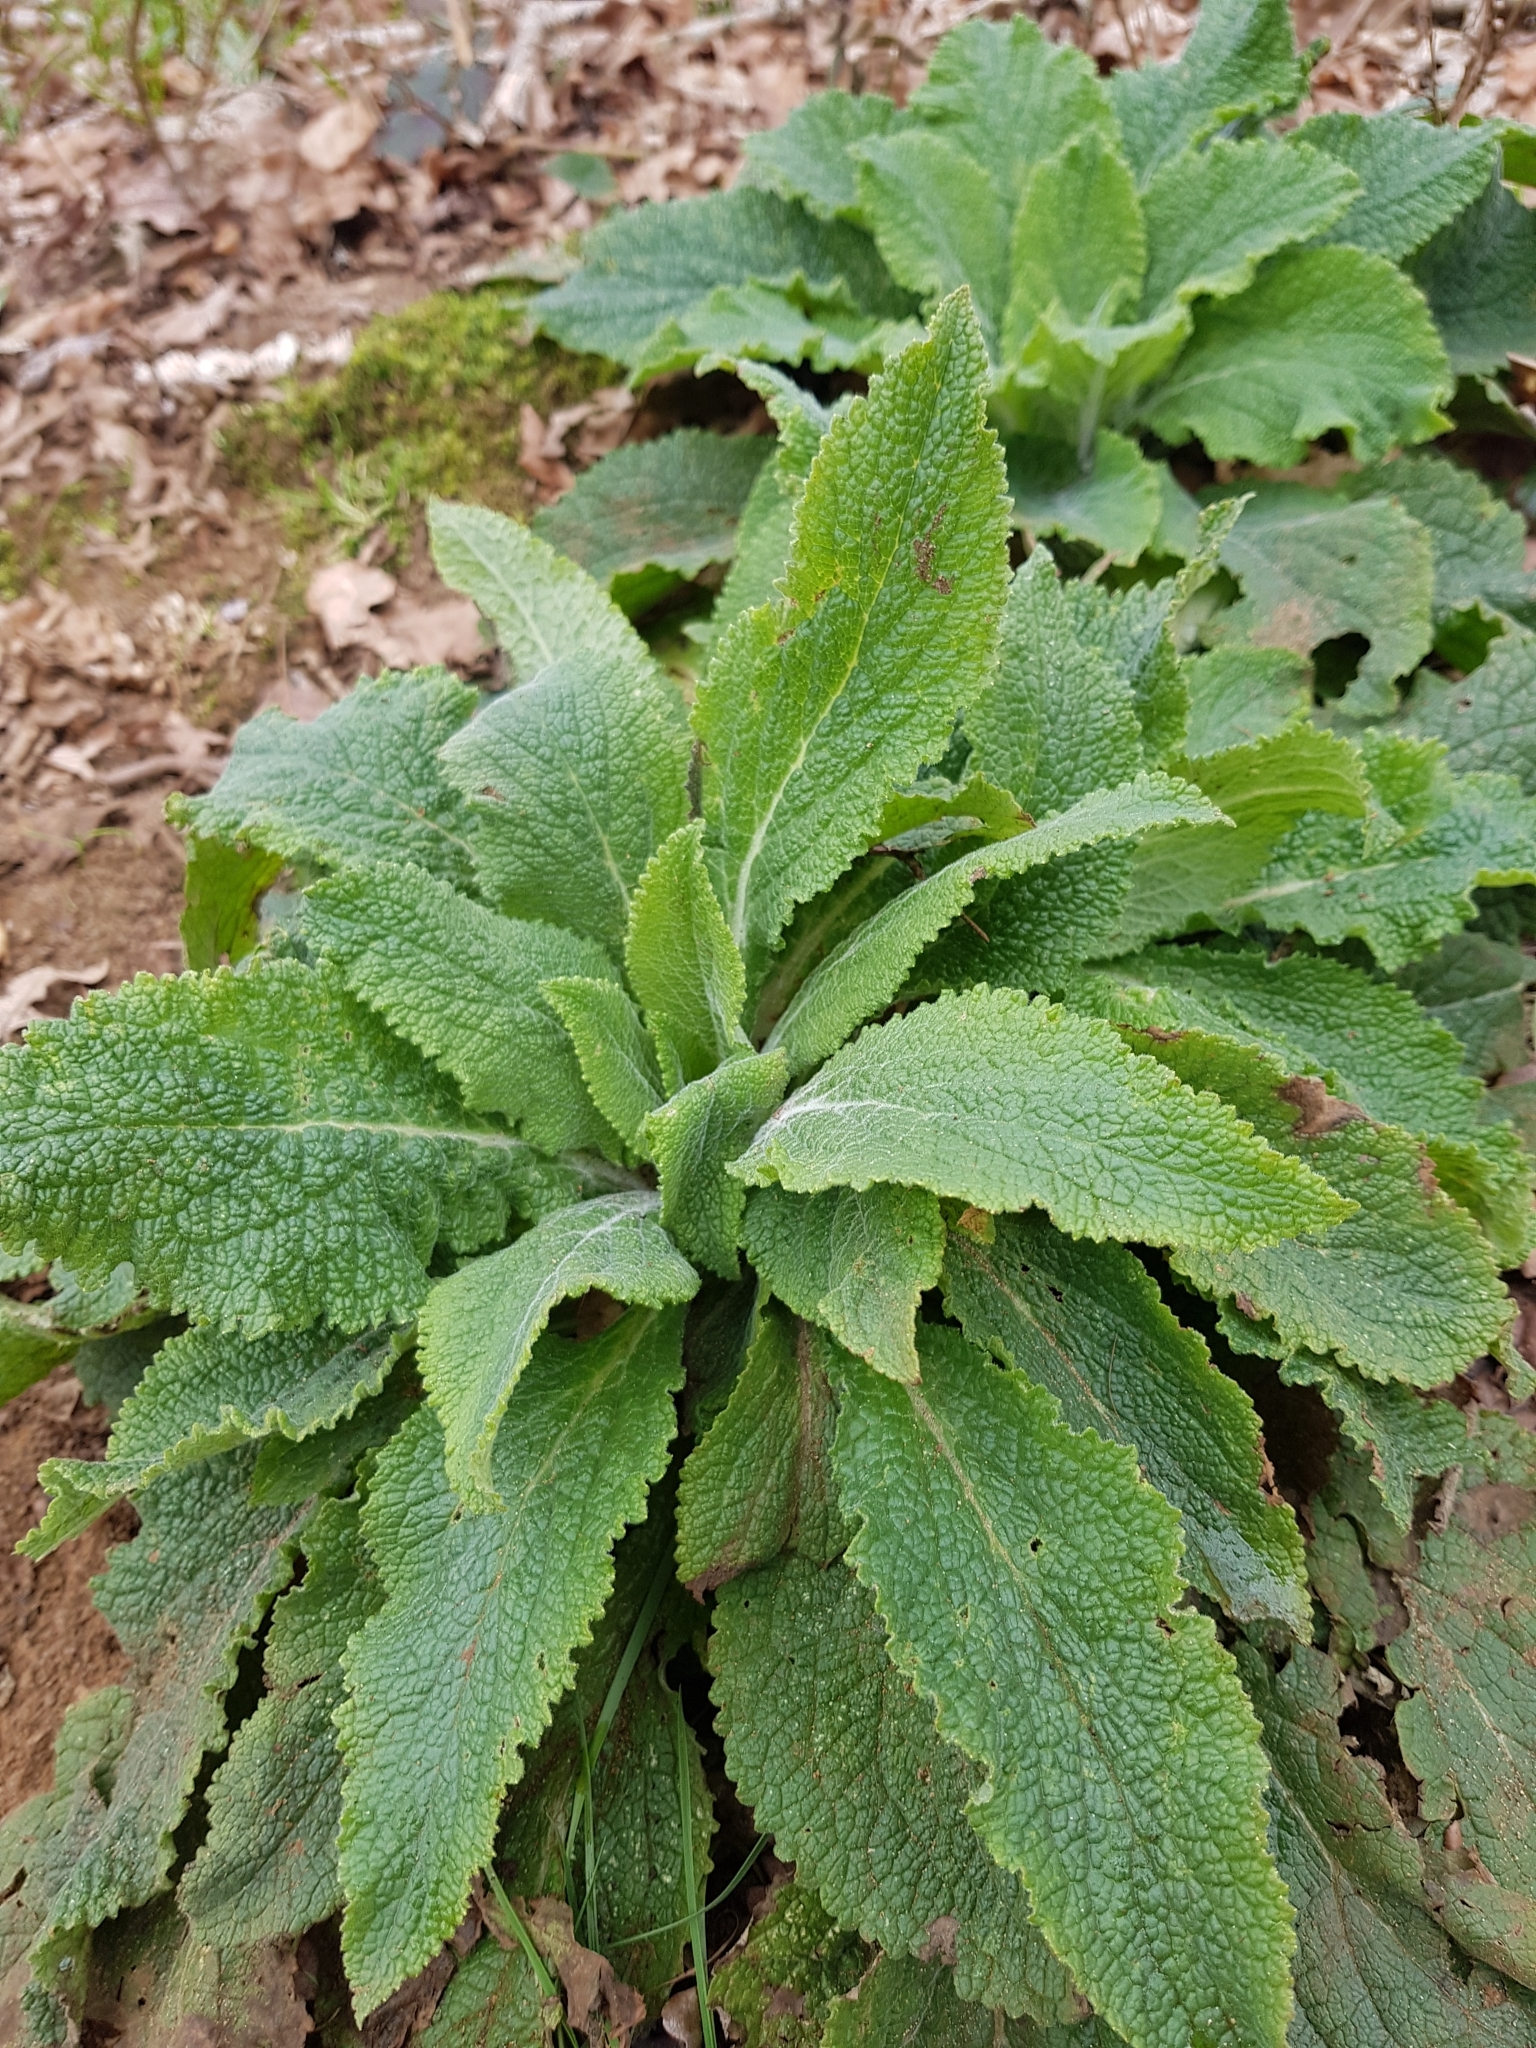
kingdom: Plantae
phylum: Tracheophyta
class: Magnoliopsida
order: Lamiales
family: Plantaginaceae
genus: Digitalis
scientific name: Digitalis purpurea
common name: Foxglove
